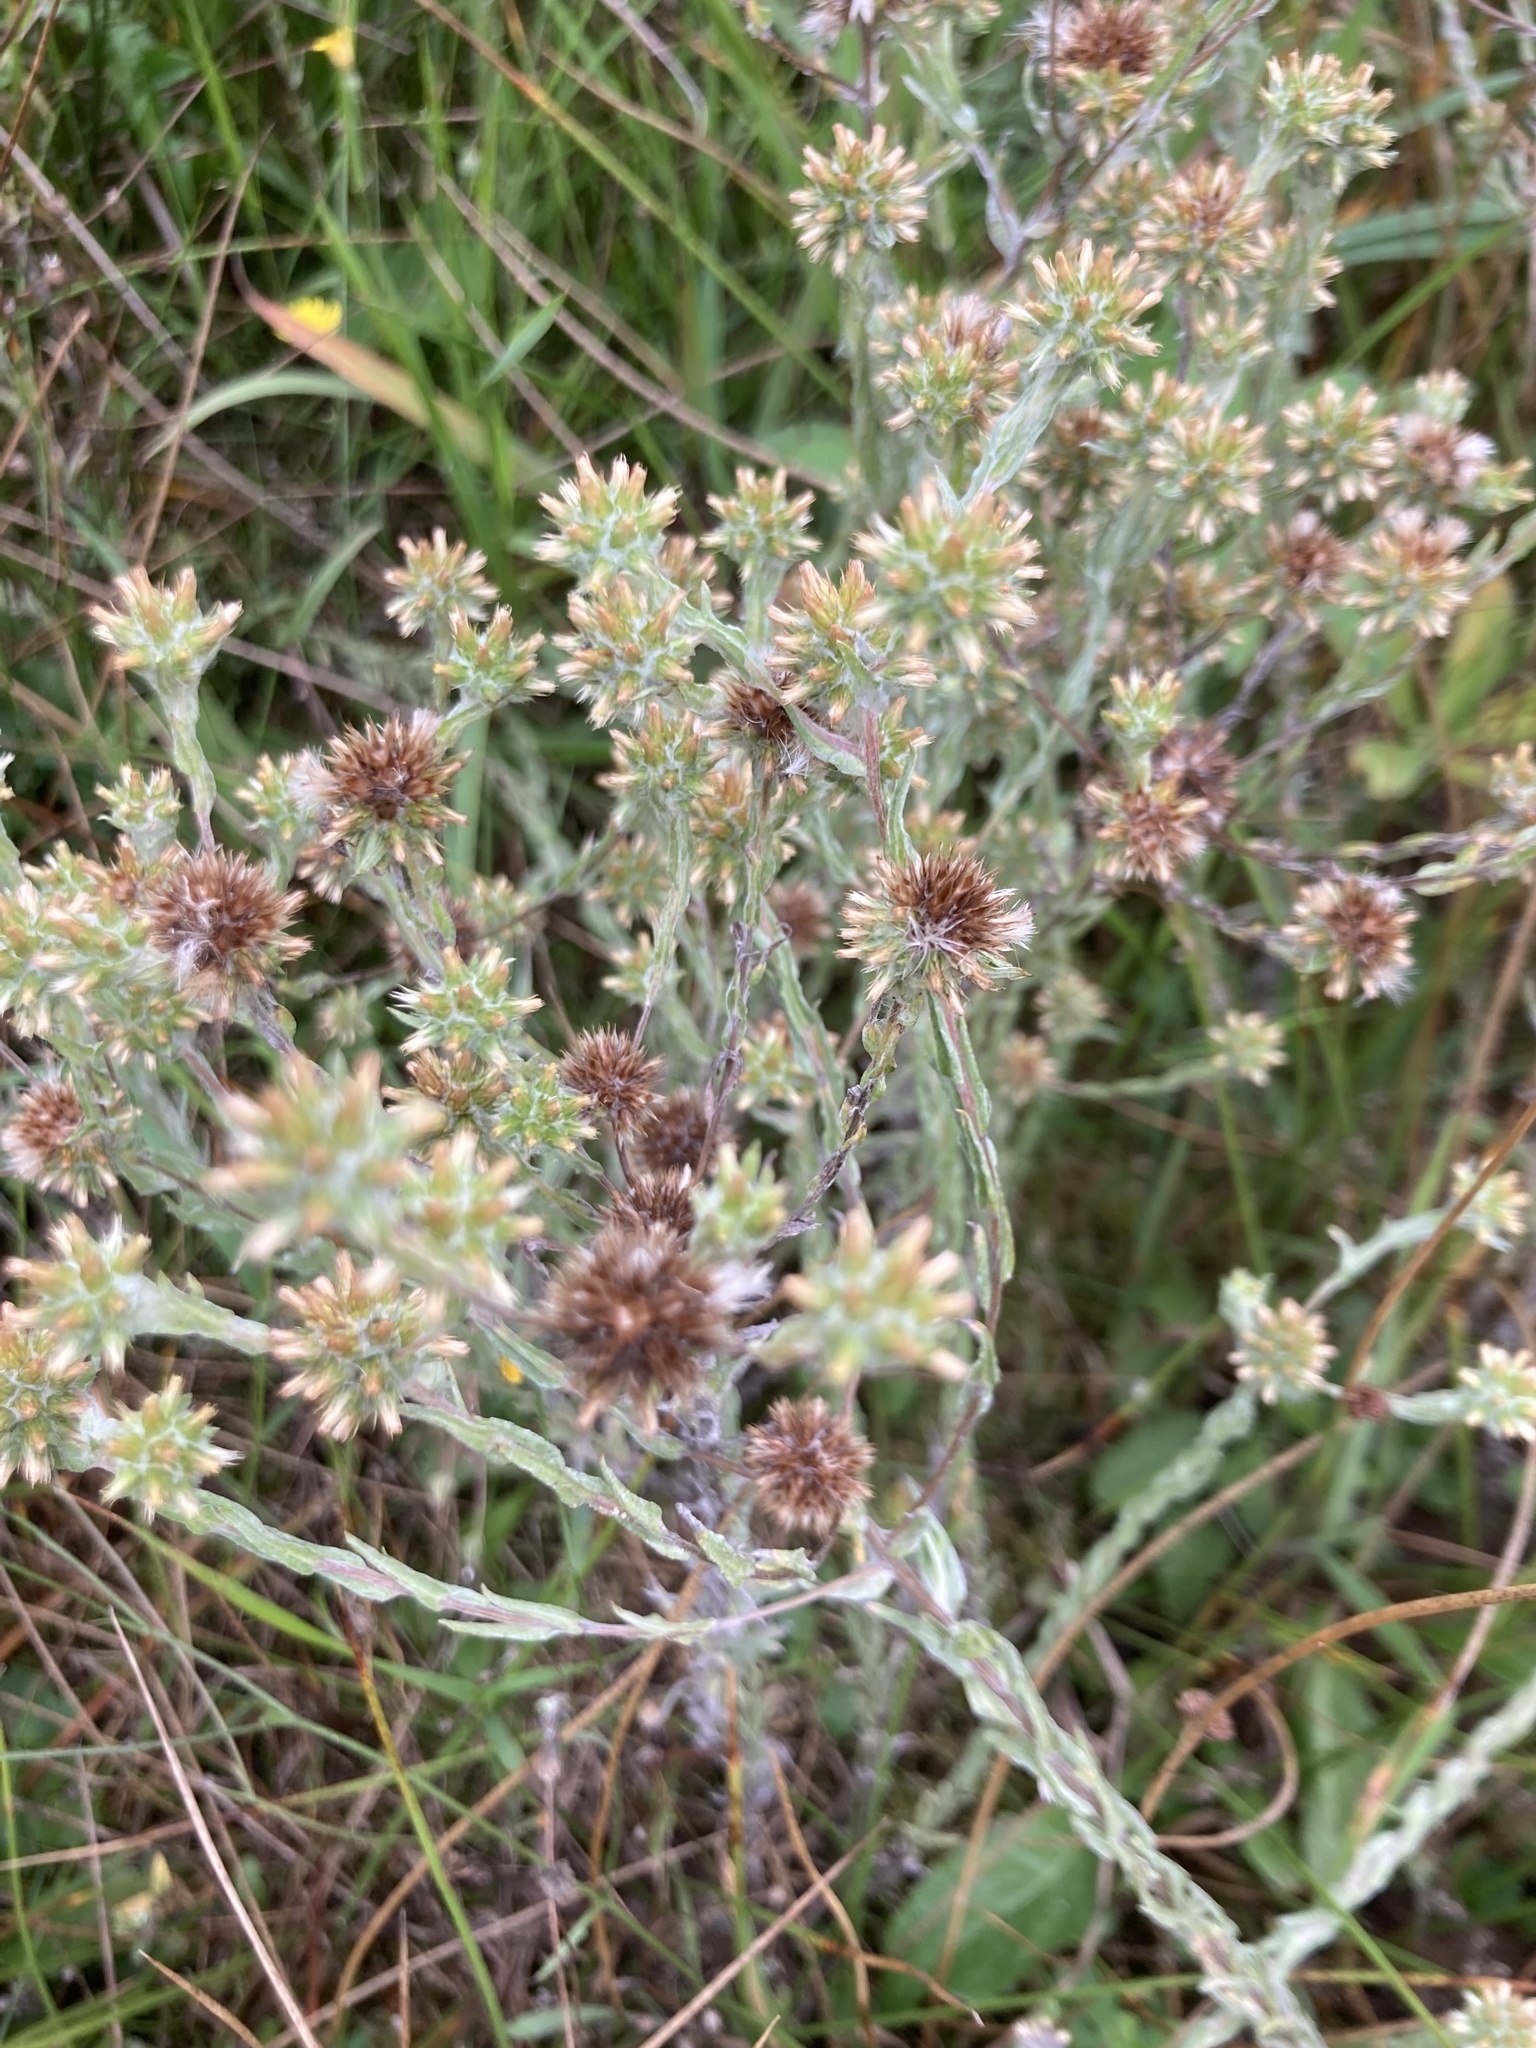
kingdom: Plantae
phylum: Tracheophyta
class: Magnoliopsida
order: Asterales
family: Asteraceae
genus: Filago
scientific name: Filago germanica
